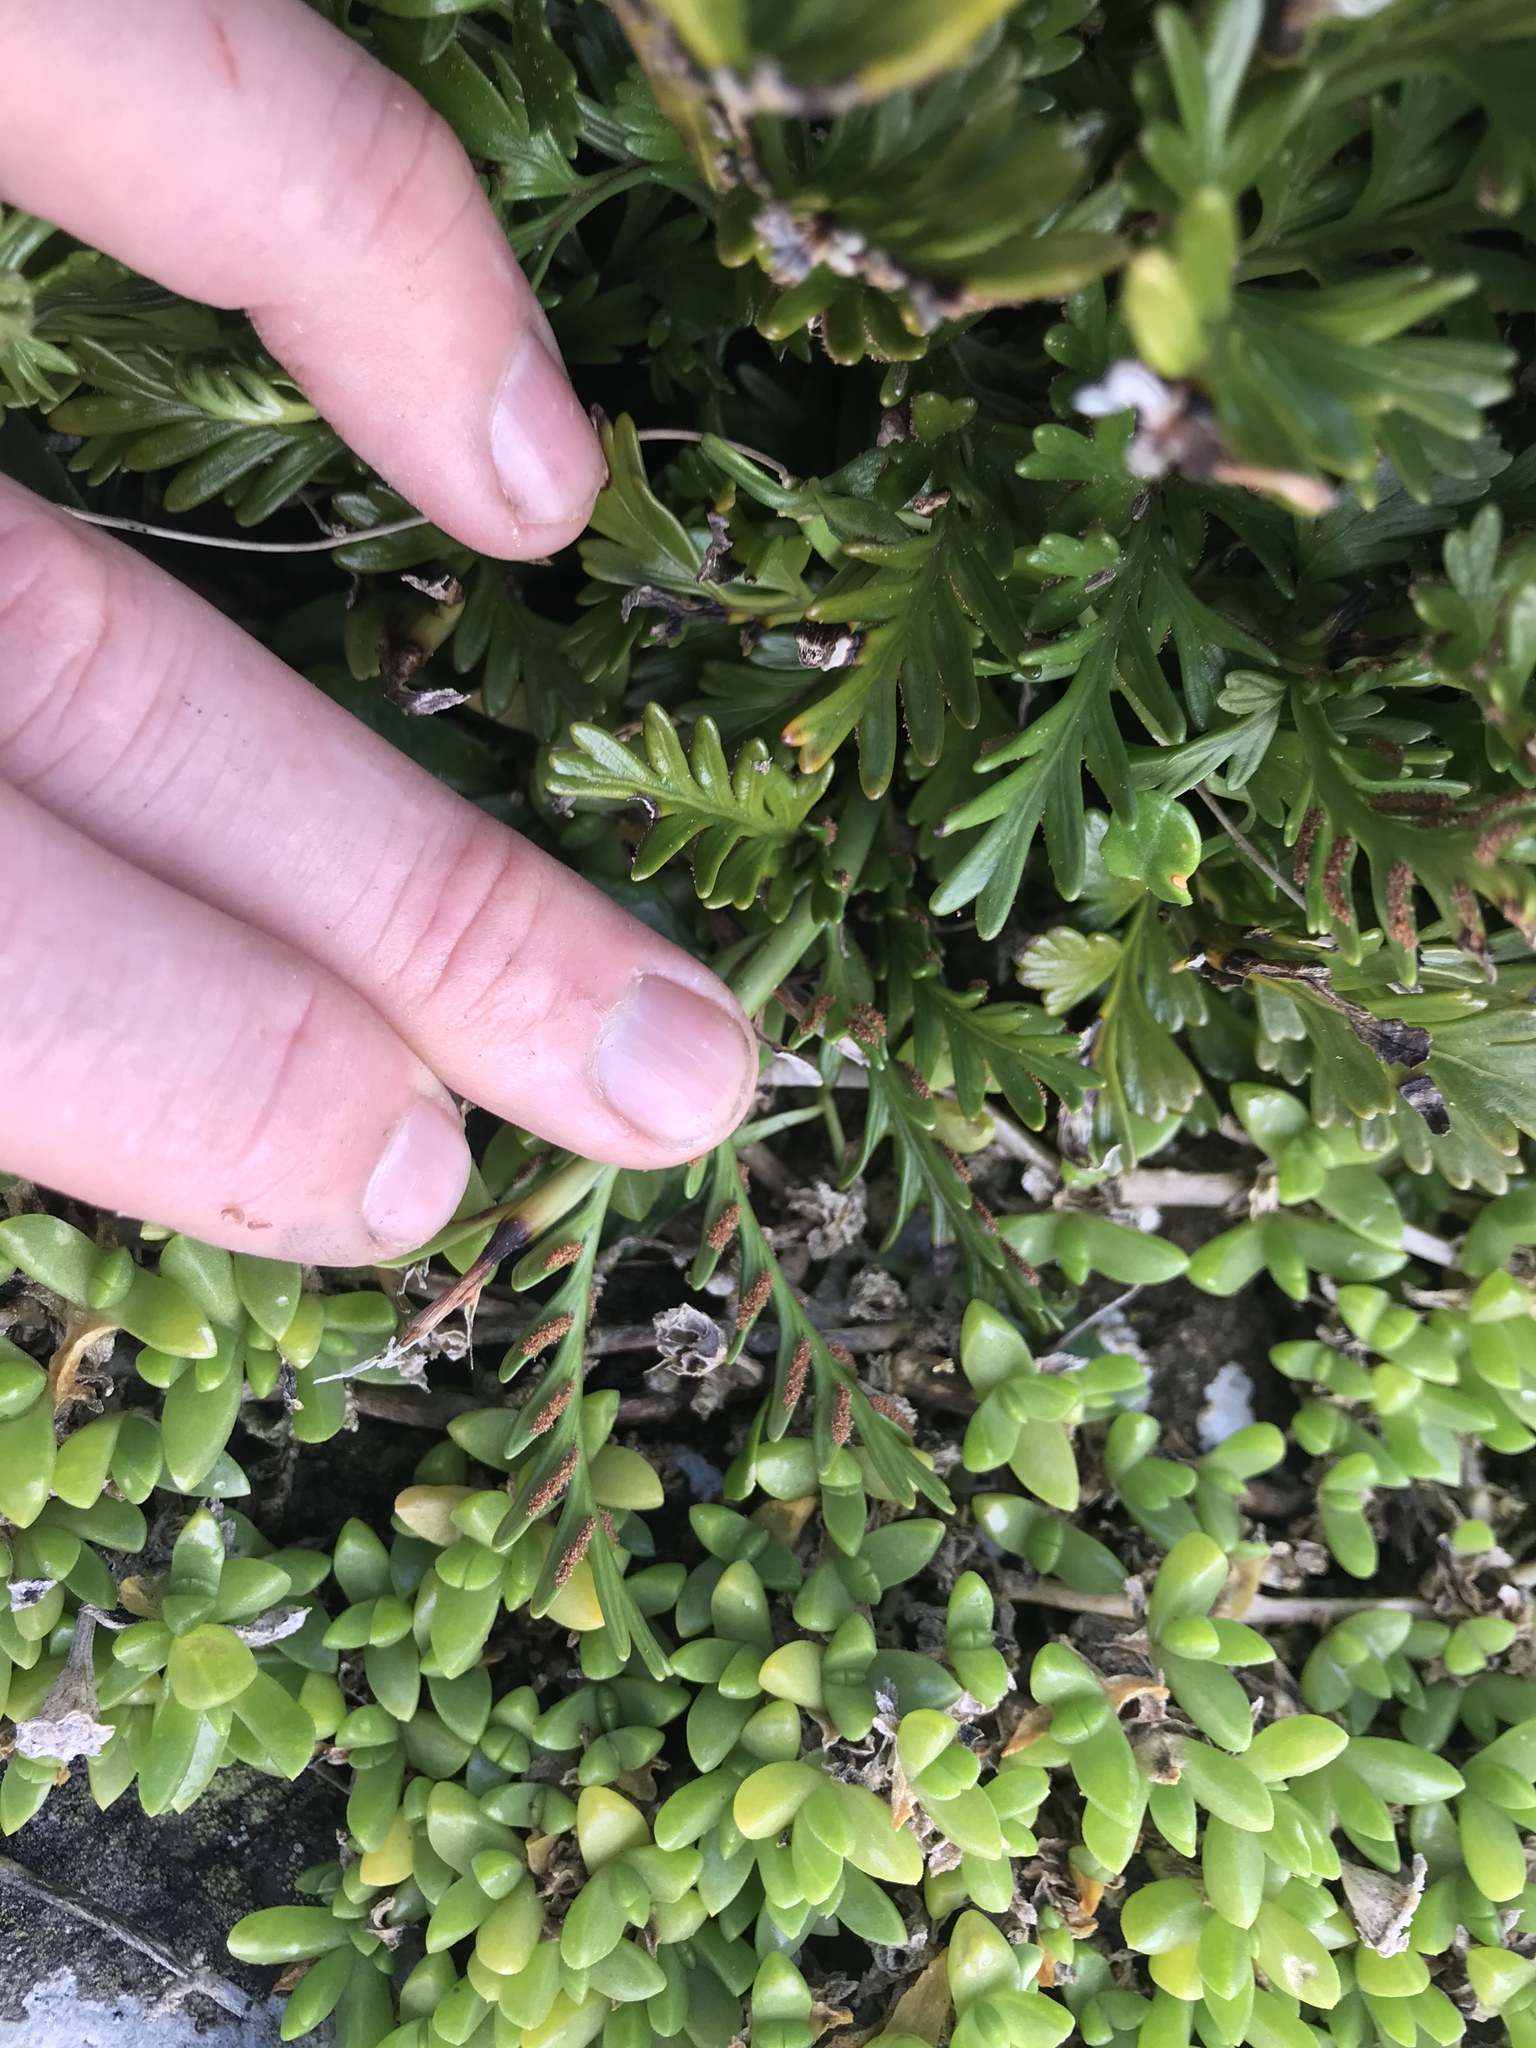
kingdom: Plantae
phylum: Tracheophyta
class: Polypodiopsida
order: Polypodiales
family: Aspleniaceae
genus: Asplenium
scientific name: Asplenium chathamense
